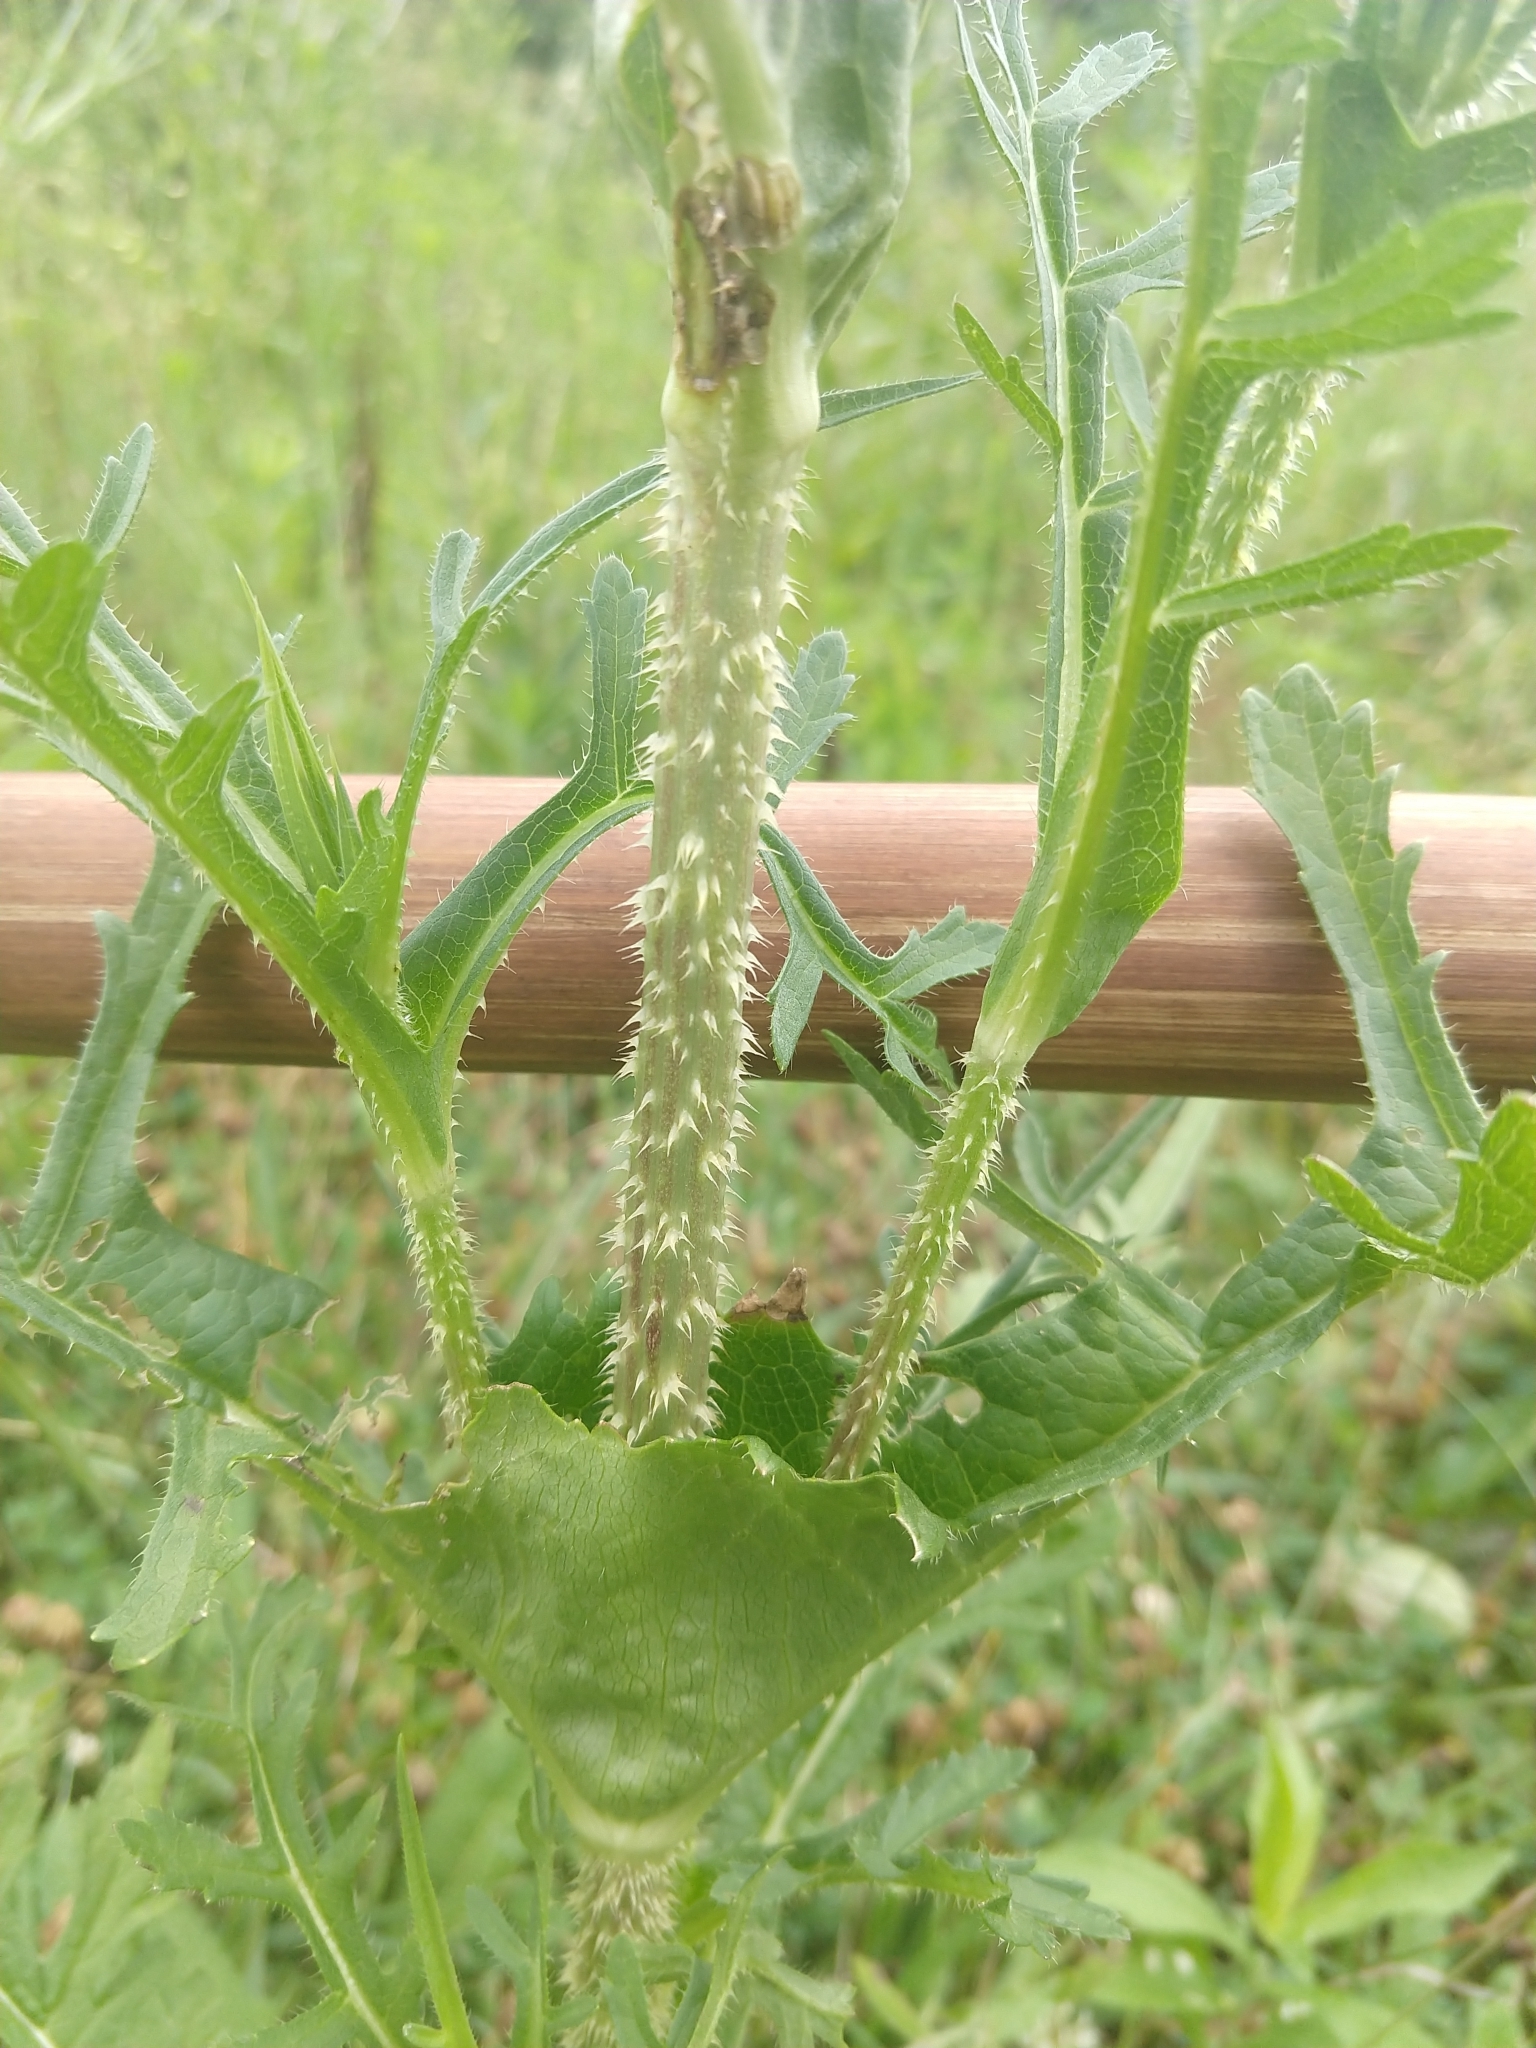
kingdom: Plantae
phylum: Tracheophyta
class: Magnoliopsida
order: Dipsacales
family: Caprifoliaceae
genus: Dipsacus
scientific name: Dipsacus laciniatus
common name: Cut-leaved teasel
